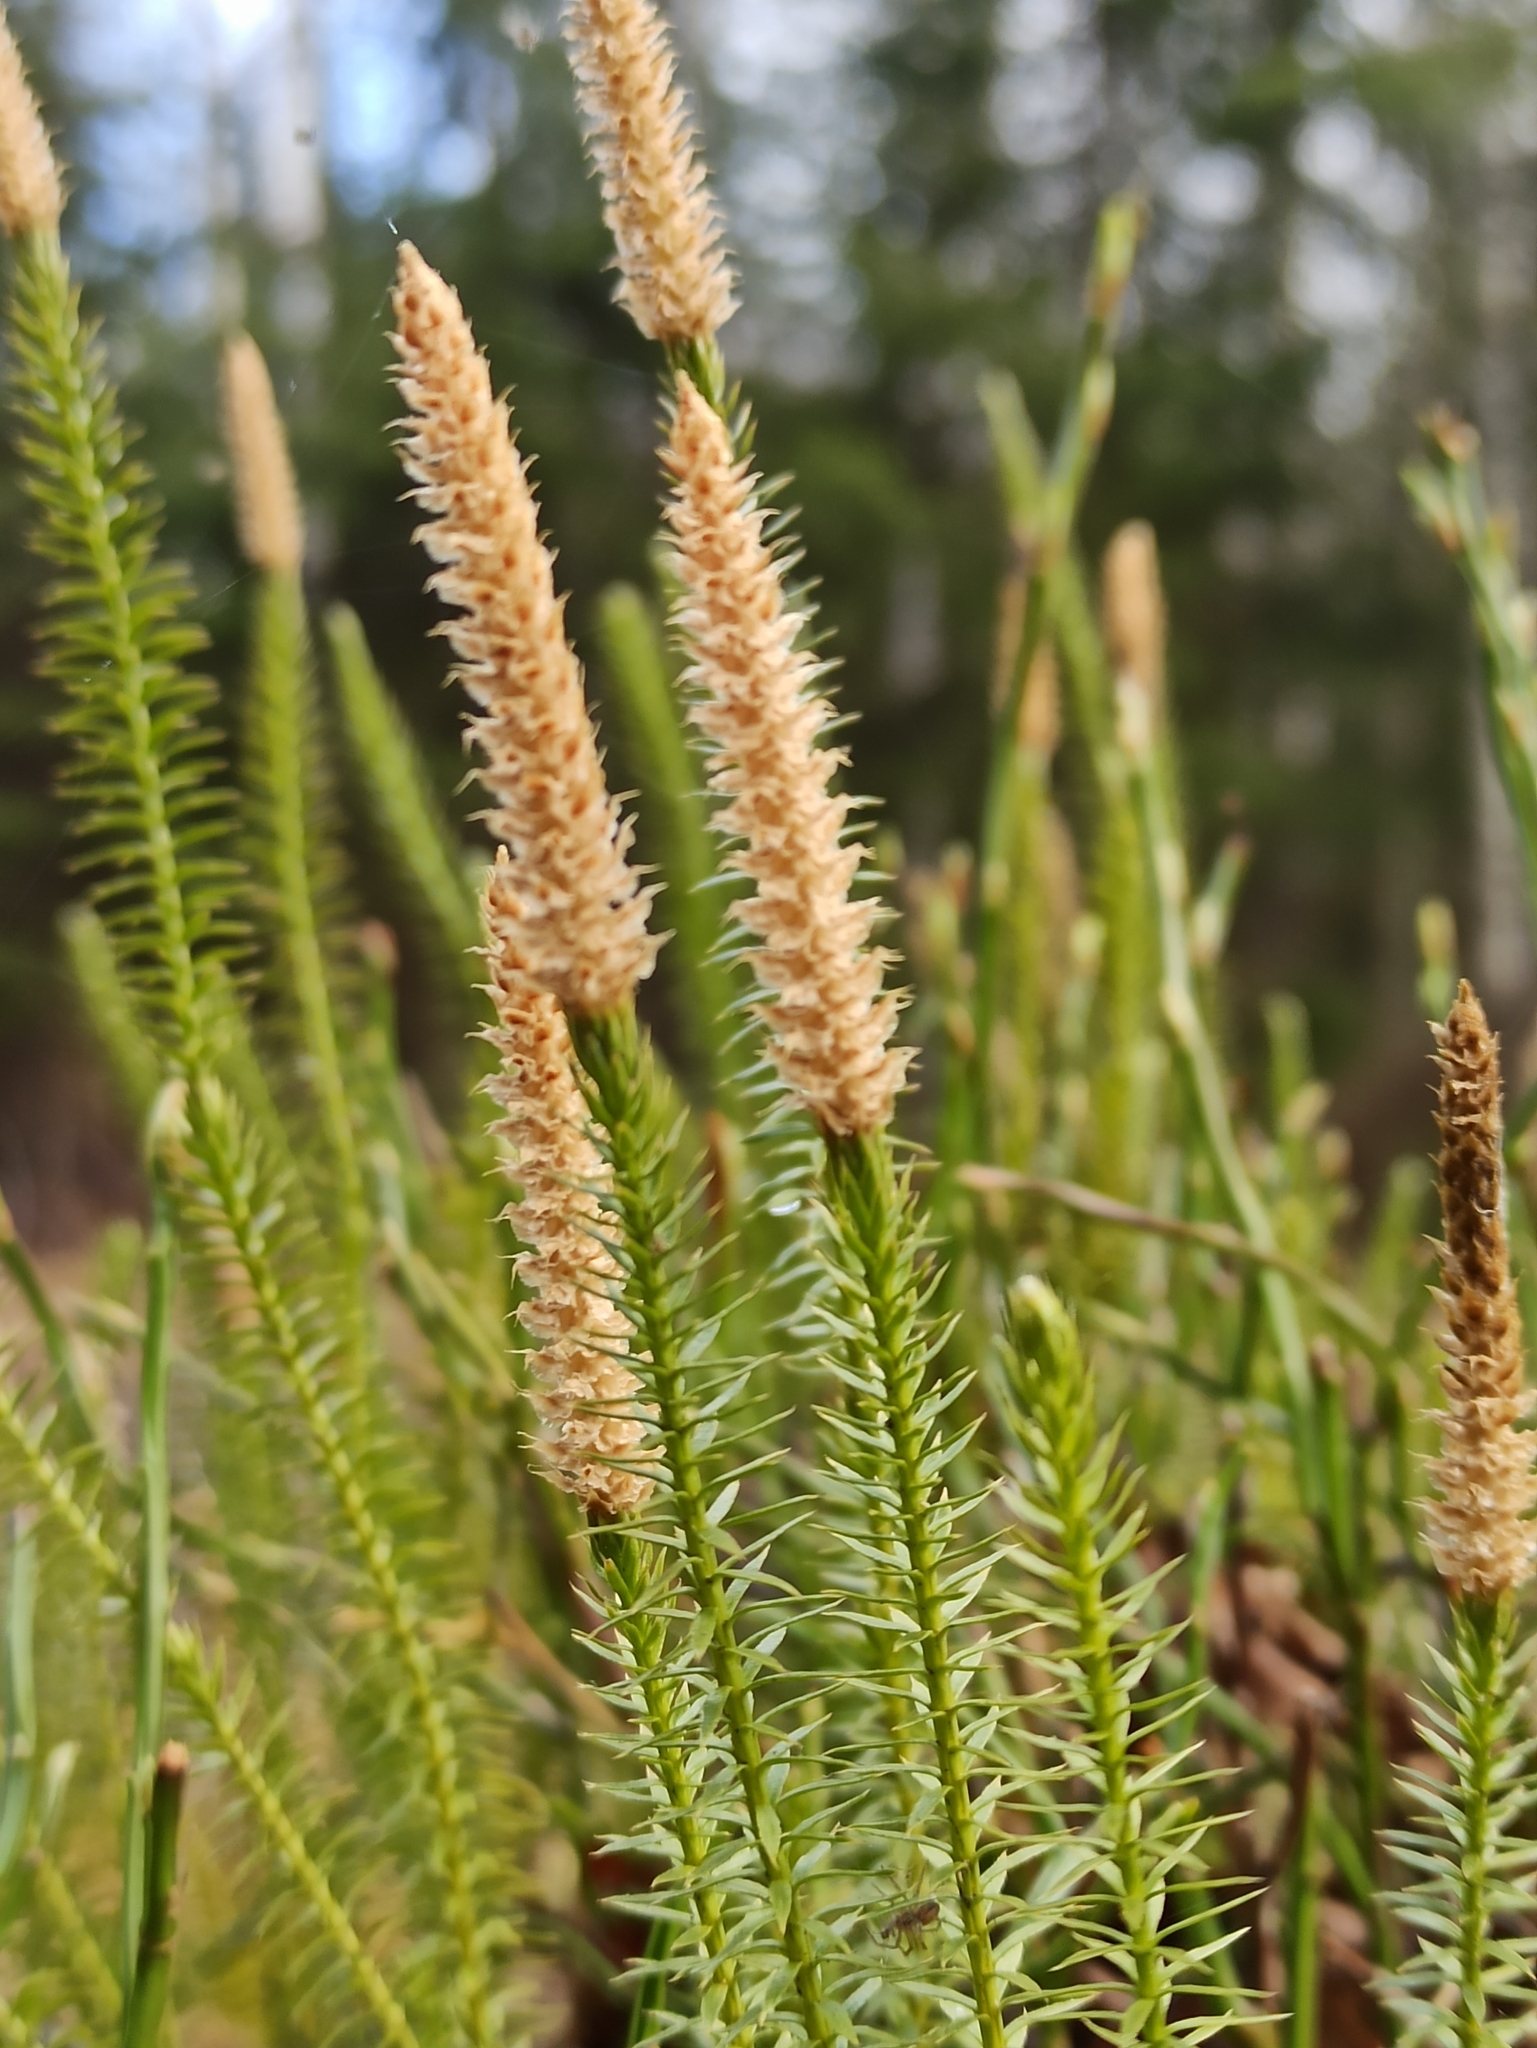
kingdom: Plantae
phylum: Tracheophyta
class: Lycopodiopsida
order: Lycopodiales
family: Lycopodiaceae
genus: Spinulum
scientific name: Spinulum annotinum
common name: Interrupted club-moss
